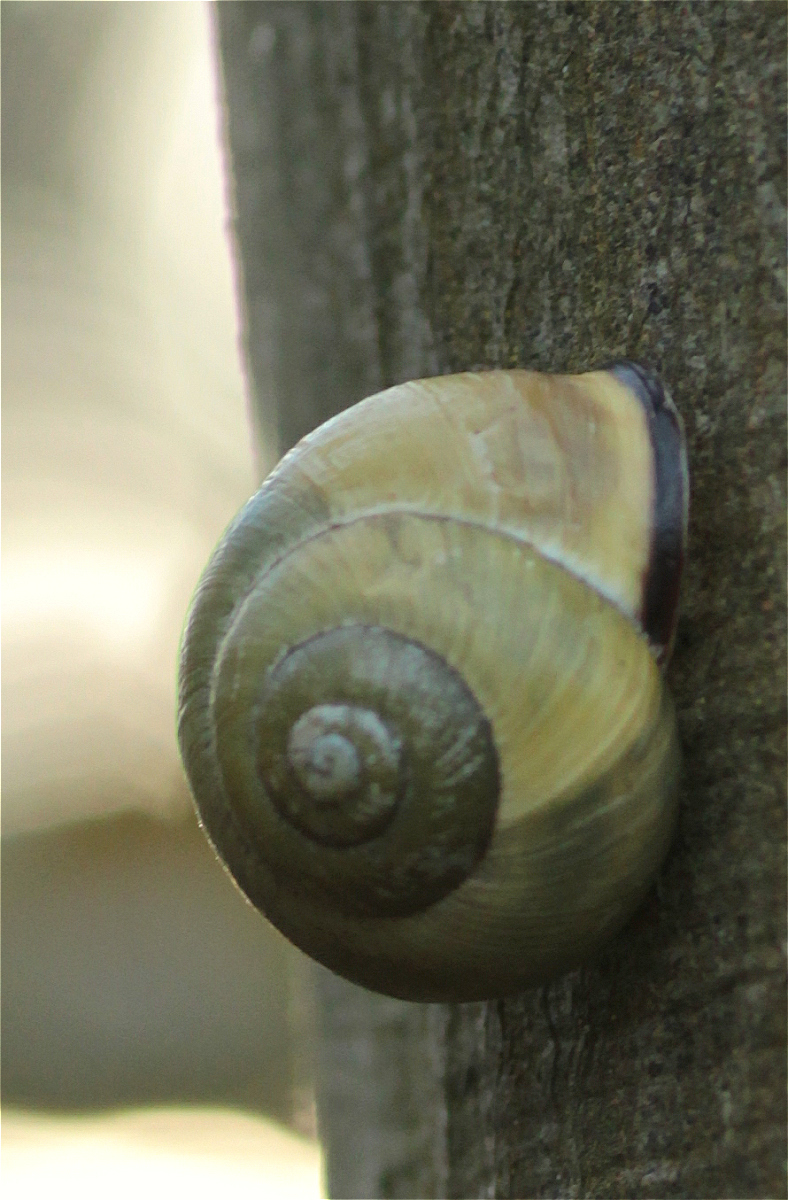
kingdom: Animalia
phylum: Mollusca
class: Gastropoda
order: Stylommatophora
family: Helicidae
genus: Cepaea
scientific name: Cepaea nemoralis
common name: Grovesnail
